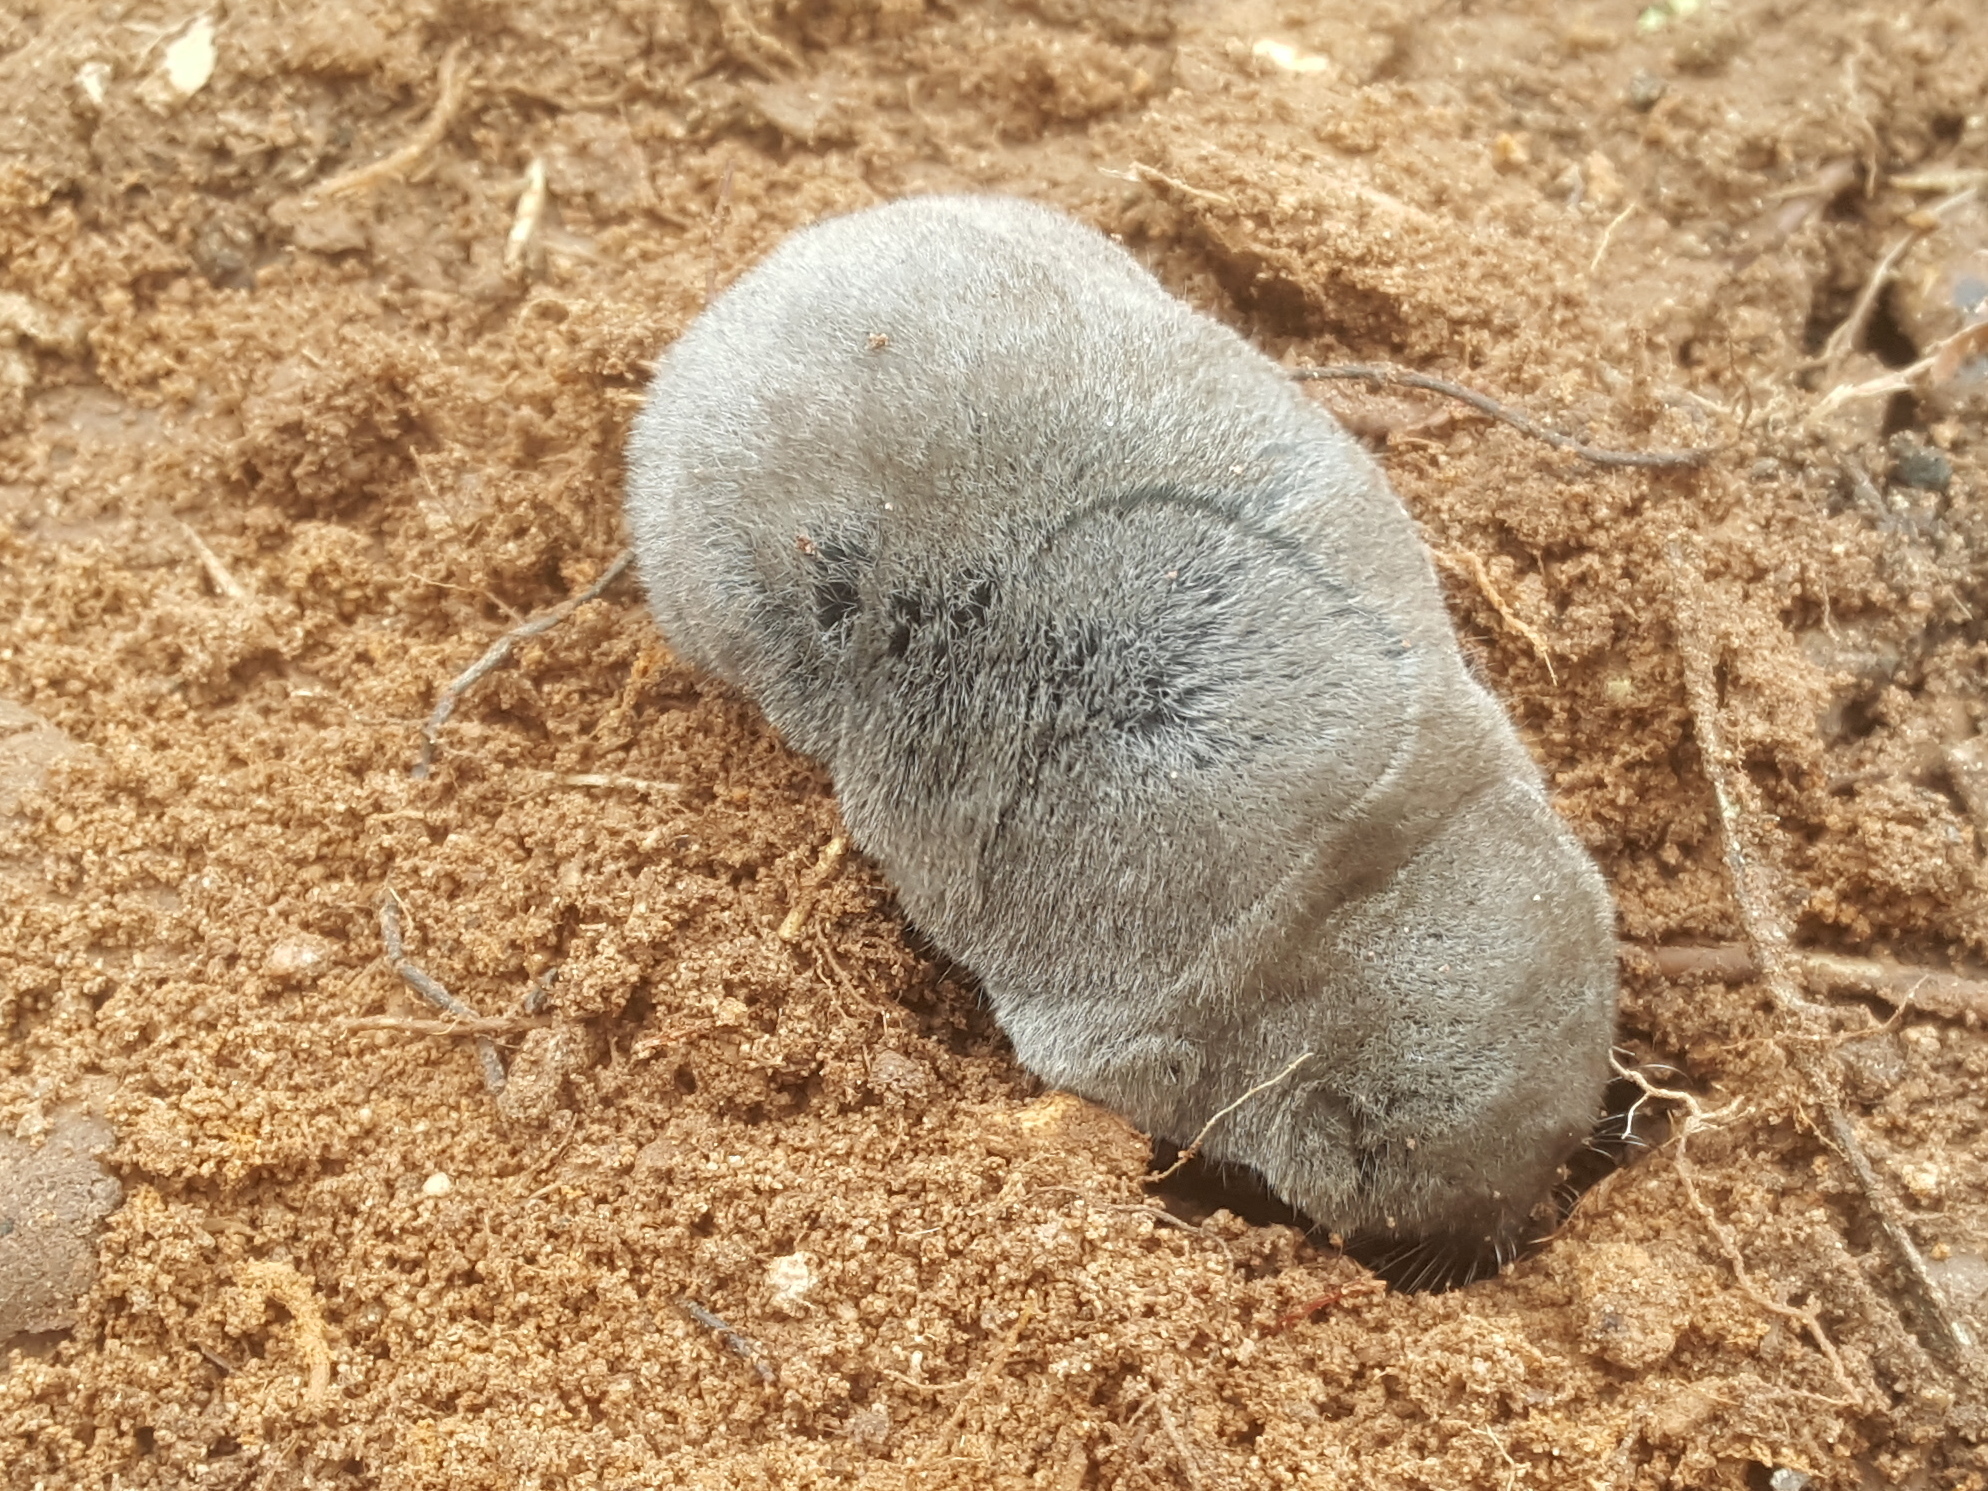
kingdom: Animalia
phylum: Chordata
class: Mammalia
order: Soricomorpha
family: Soricidae
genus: Blarina
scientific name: Blarina brevicauda
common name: Northern short-tailed shrew
